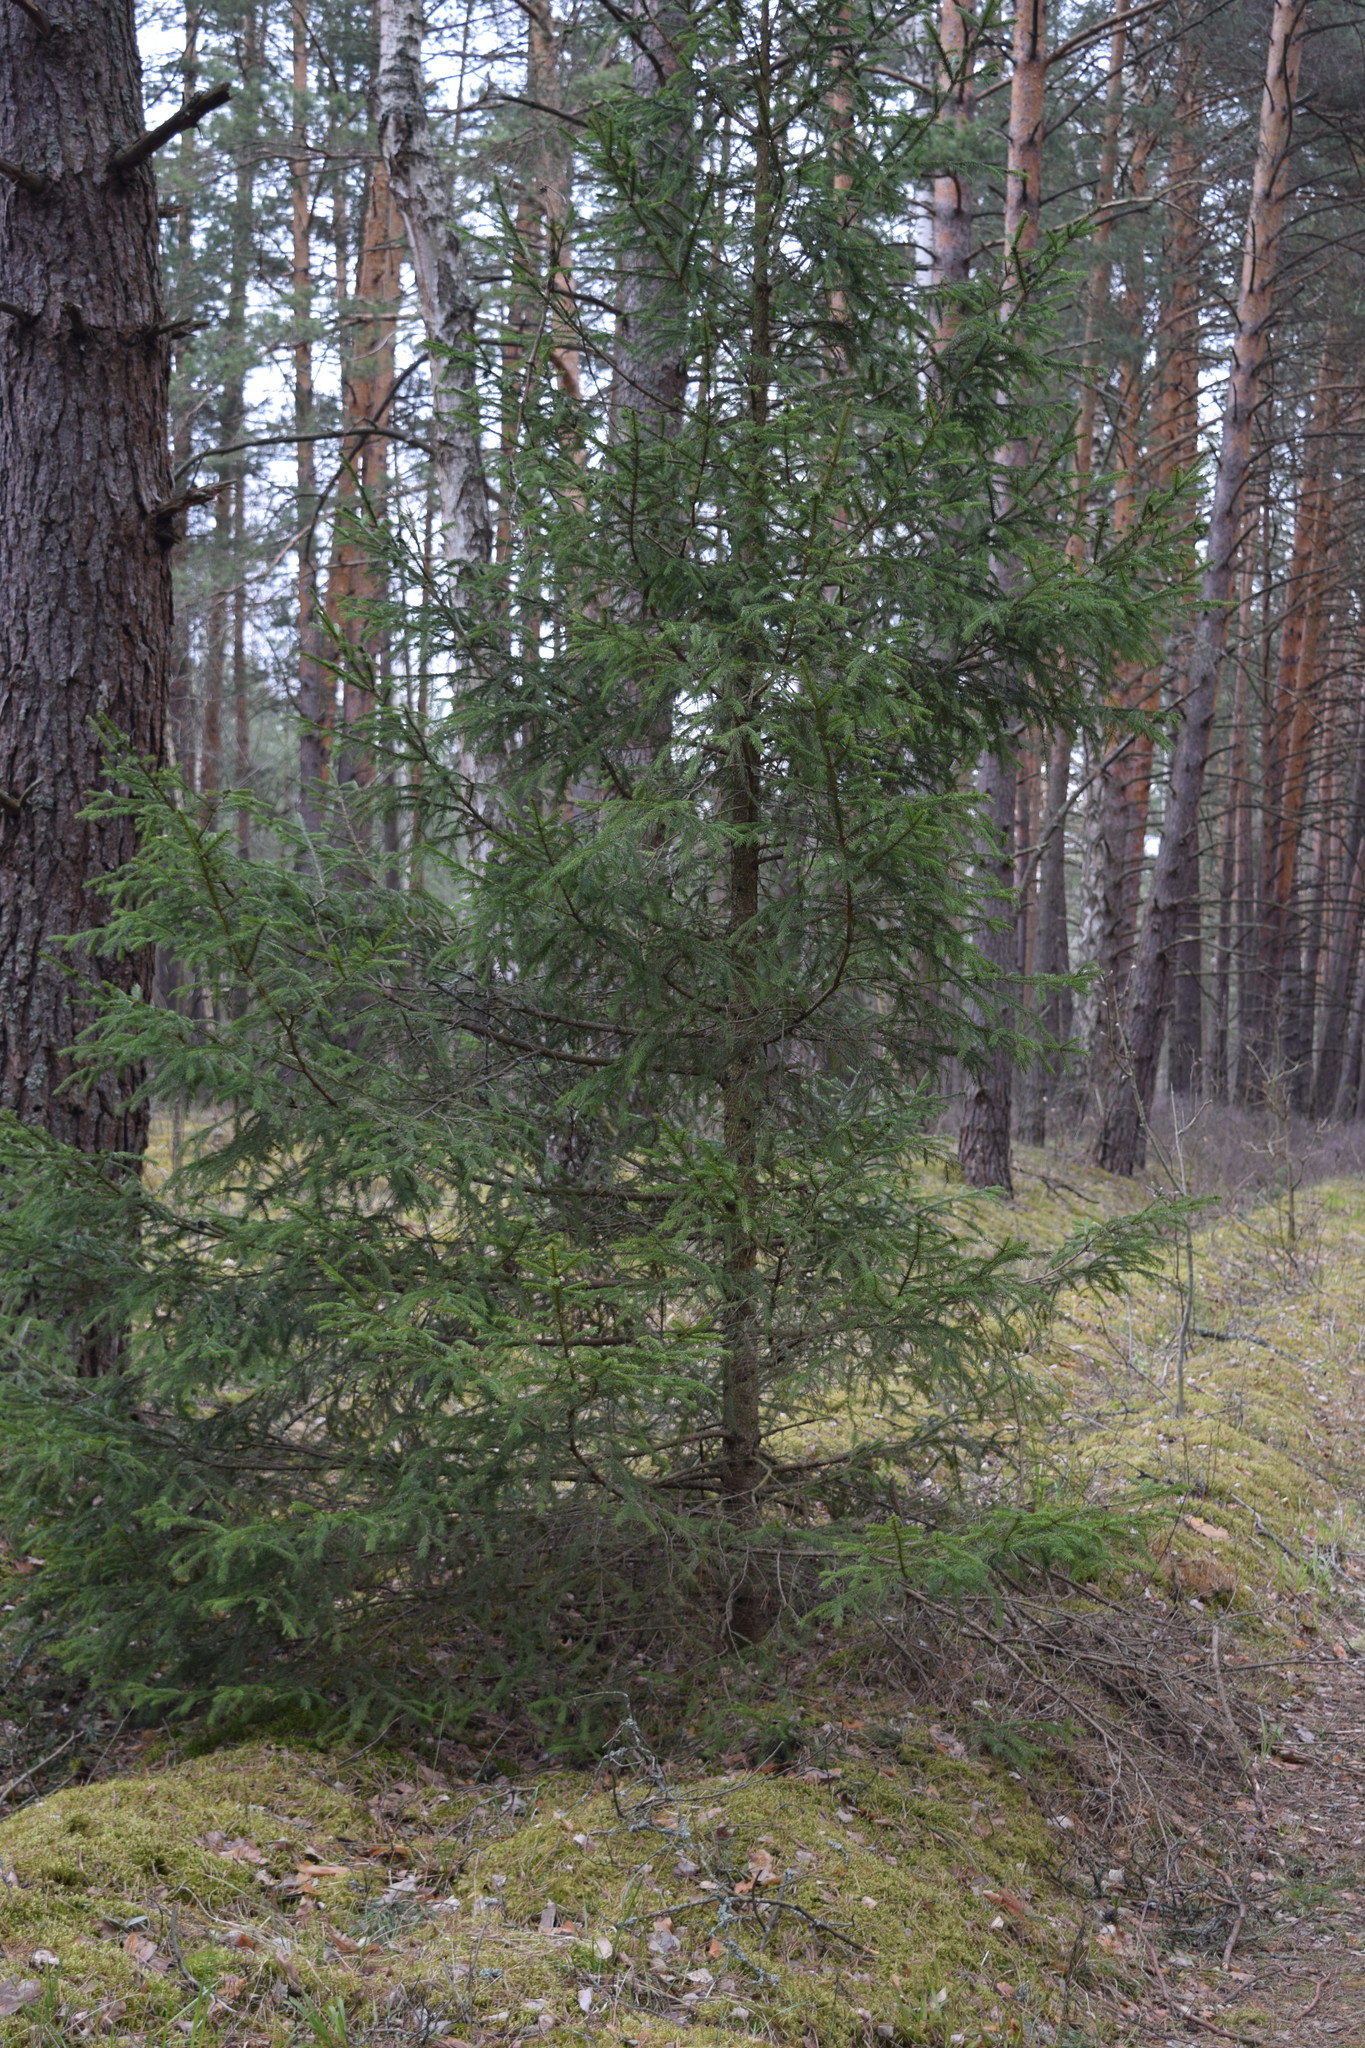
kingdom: Plantae
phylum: Tracheophyta
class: Pinopsida
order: Pinales
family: Pinaceae
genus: Picea
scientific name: Picea abies
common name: Norway spruce
